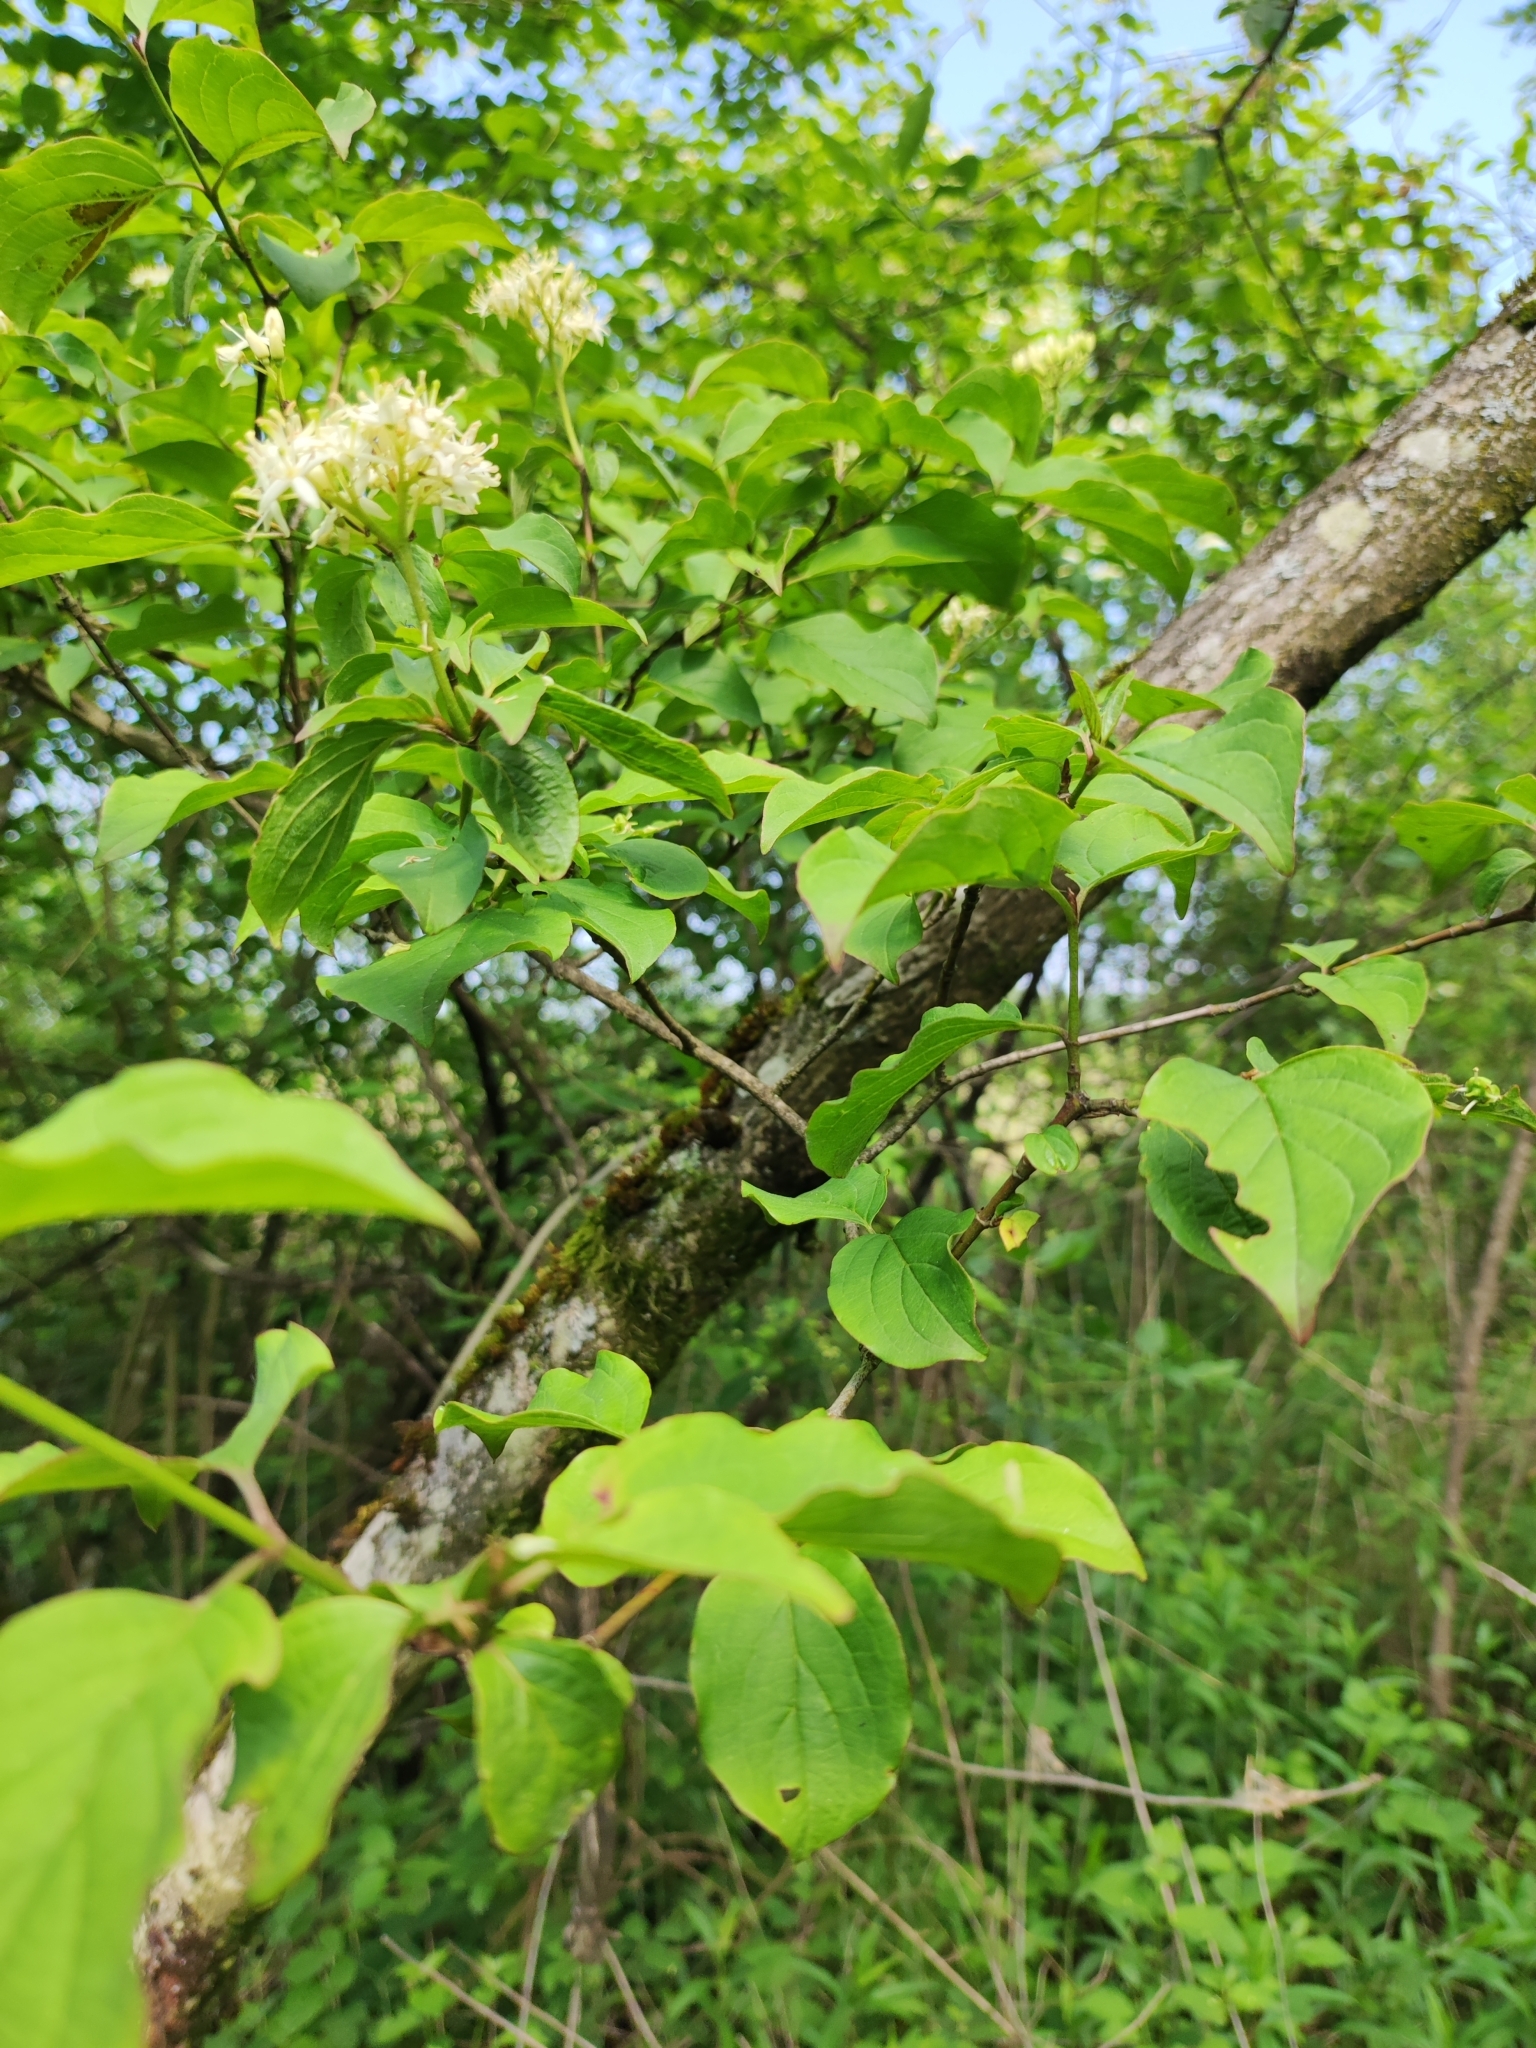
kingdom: Plantae
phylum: Tracheophyta
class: Magnoliopsida
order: Cornales
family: Cornaceae
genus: Cornus
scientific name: Cornus sanguinea
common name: Dogwood
